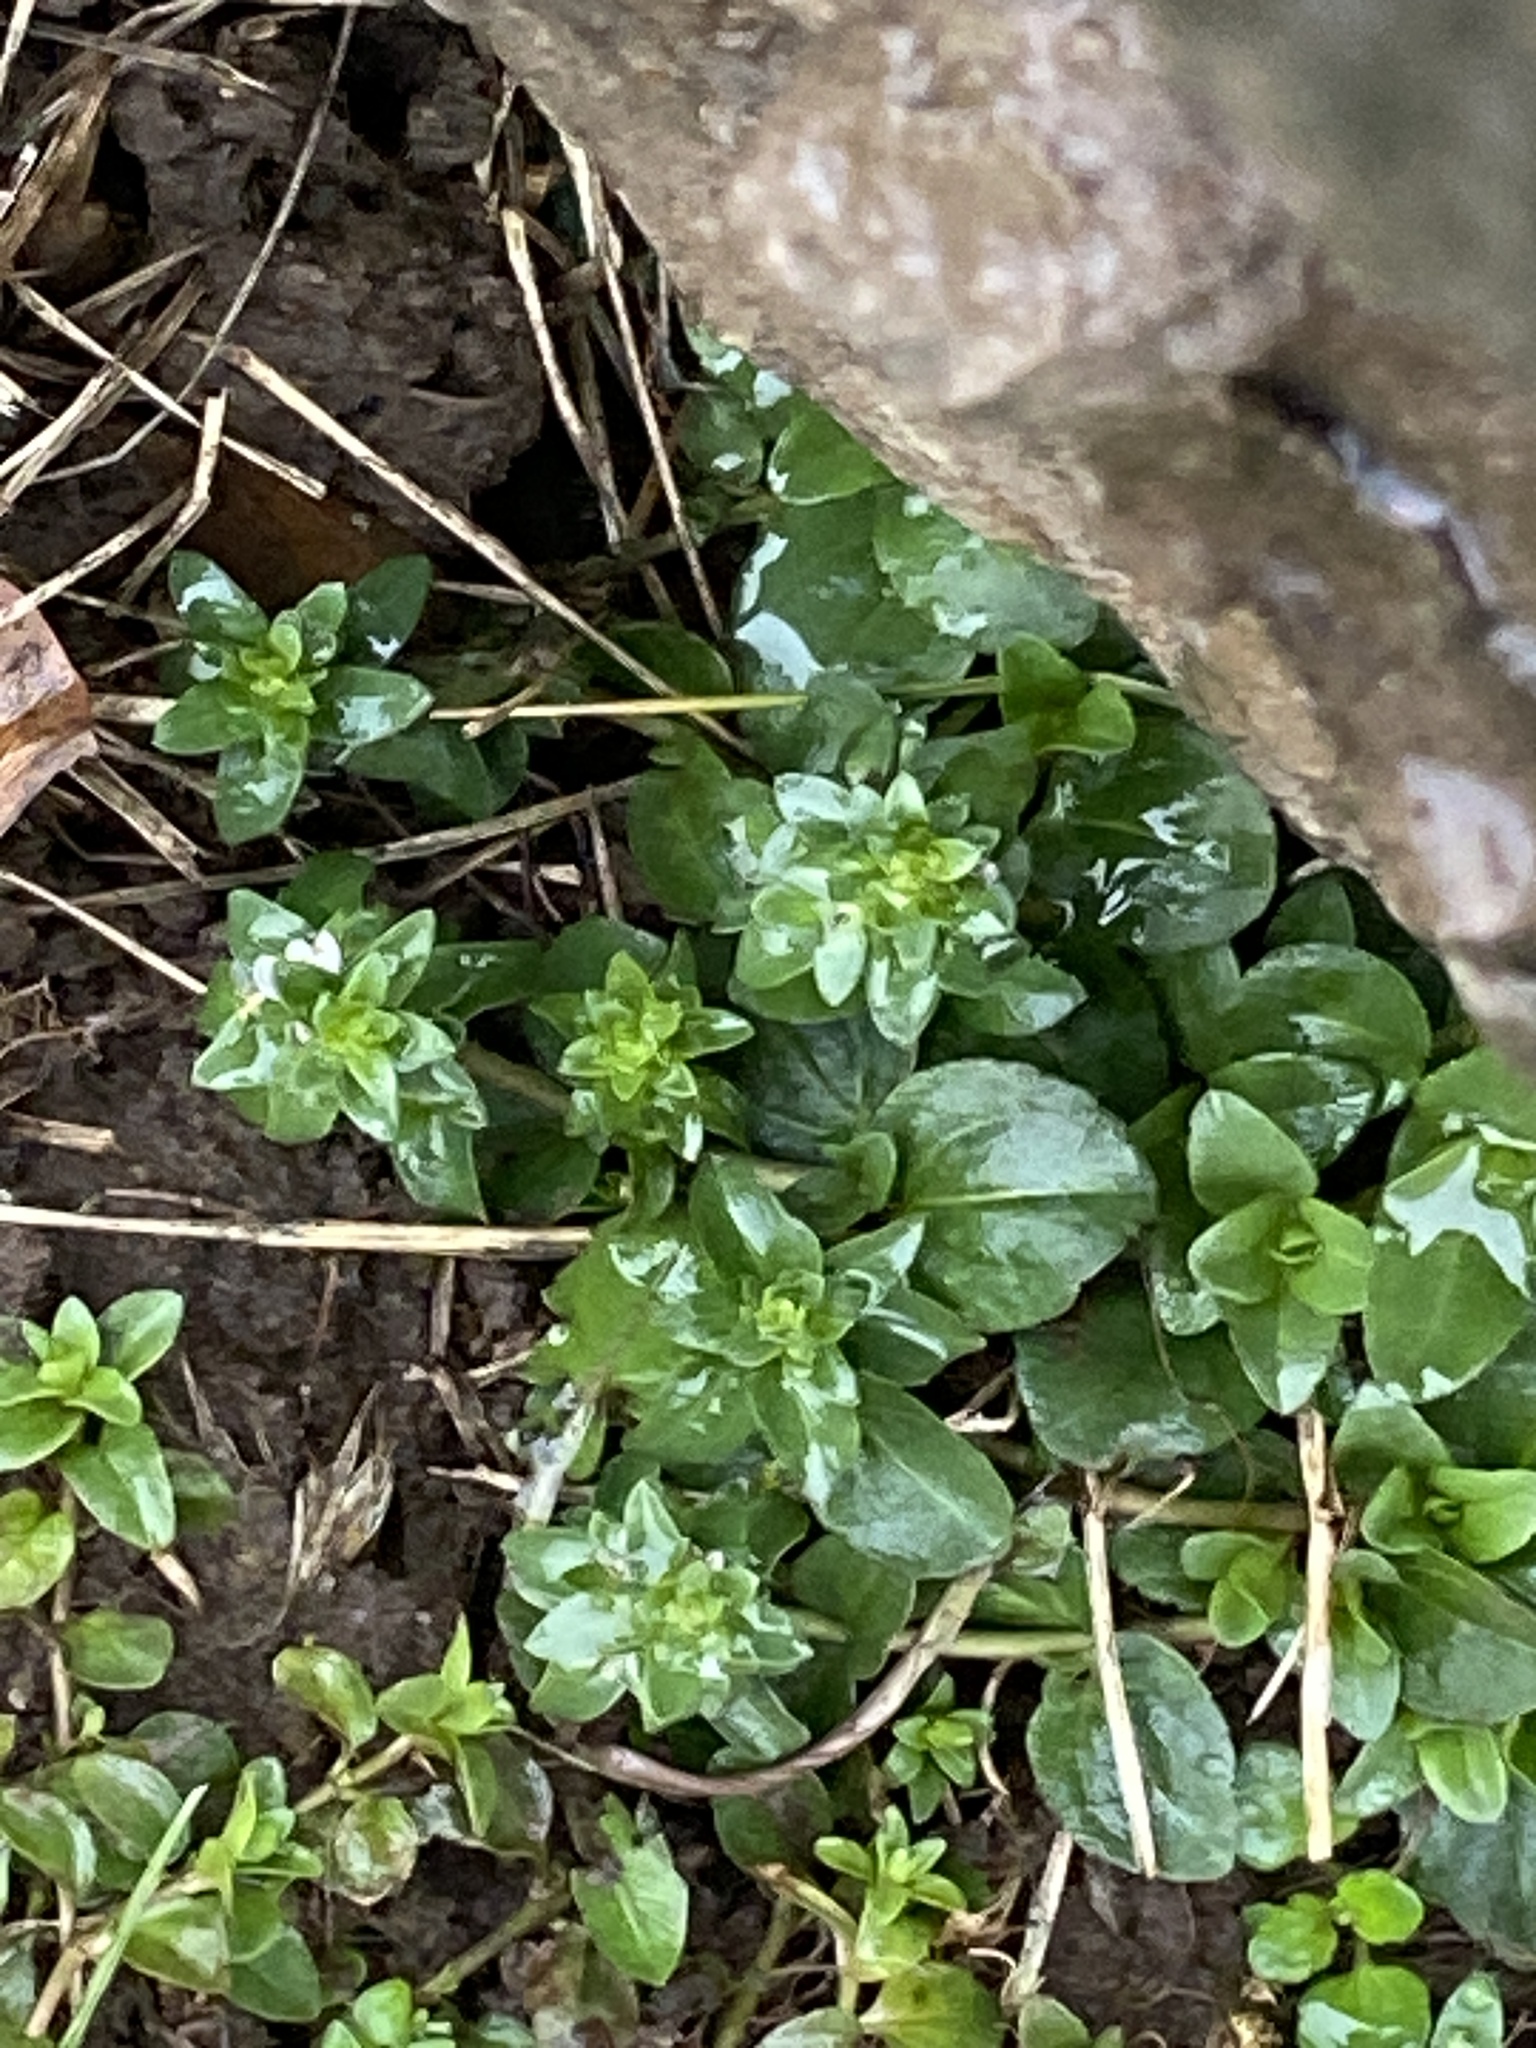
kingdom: Plantae
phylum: Tracheophyta
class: Magnoliopsida
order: Lamiales
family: Plantaginaceae
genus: Veronica
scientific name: Veronica serpyllifolia
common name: Thyme-leaved speedwell
